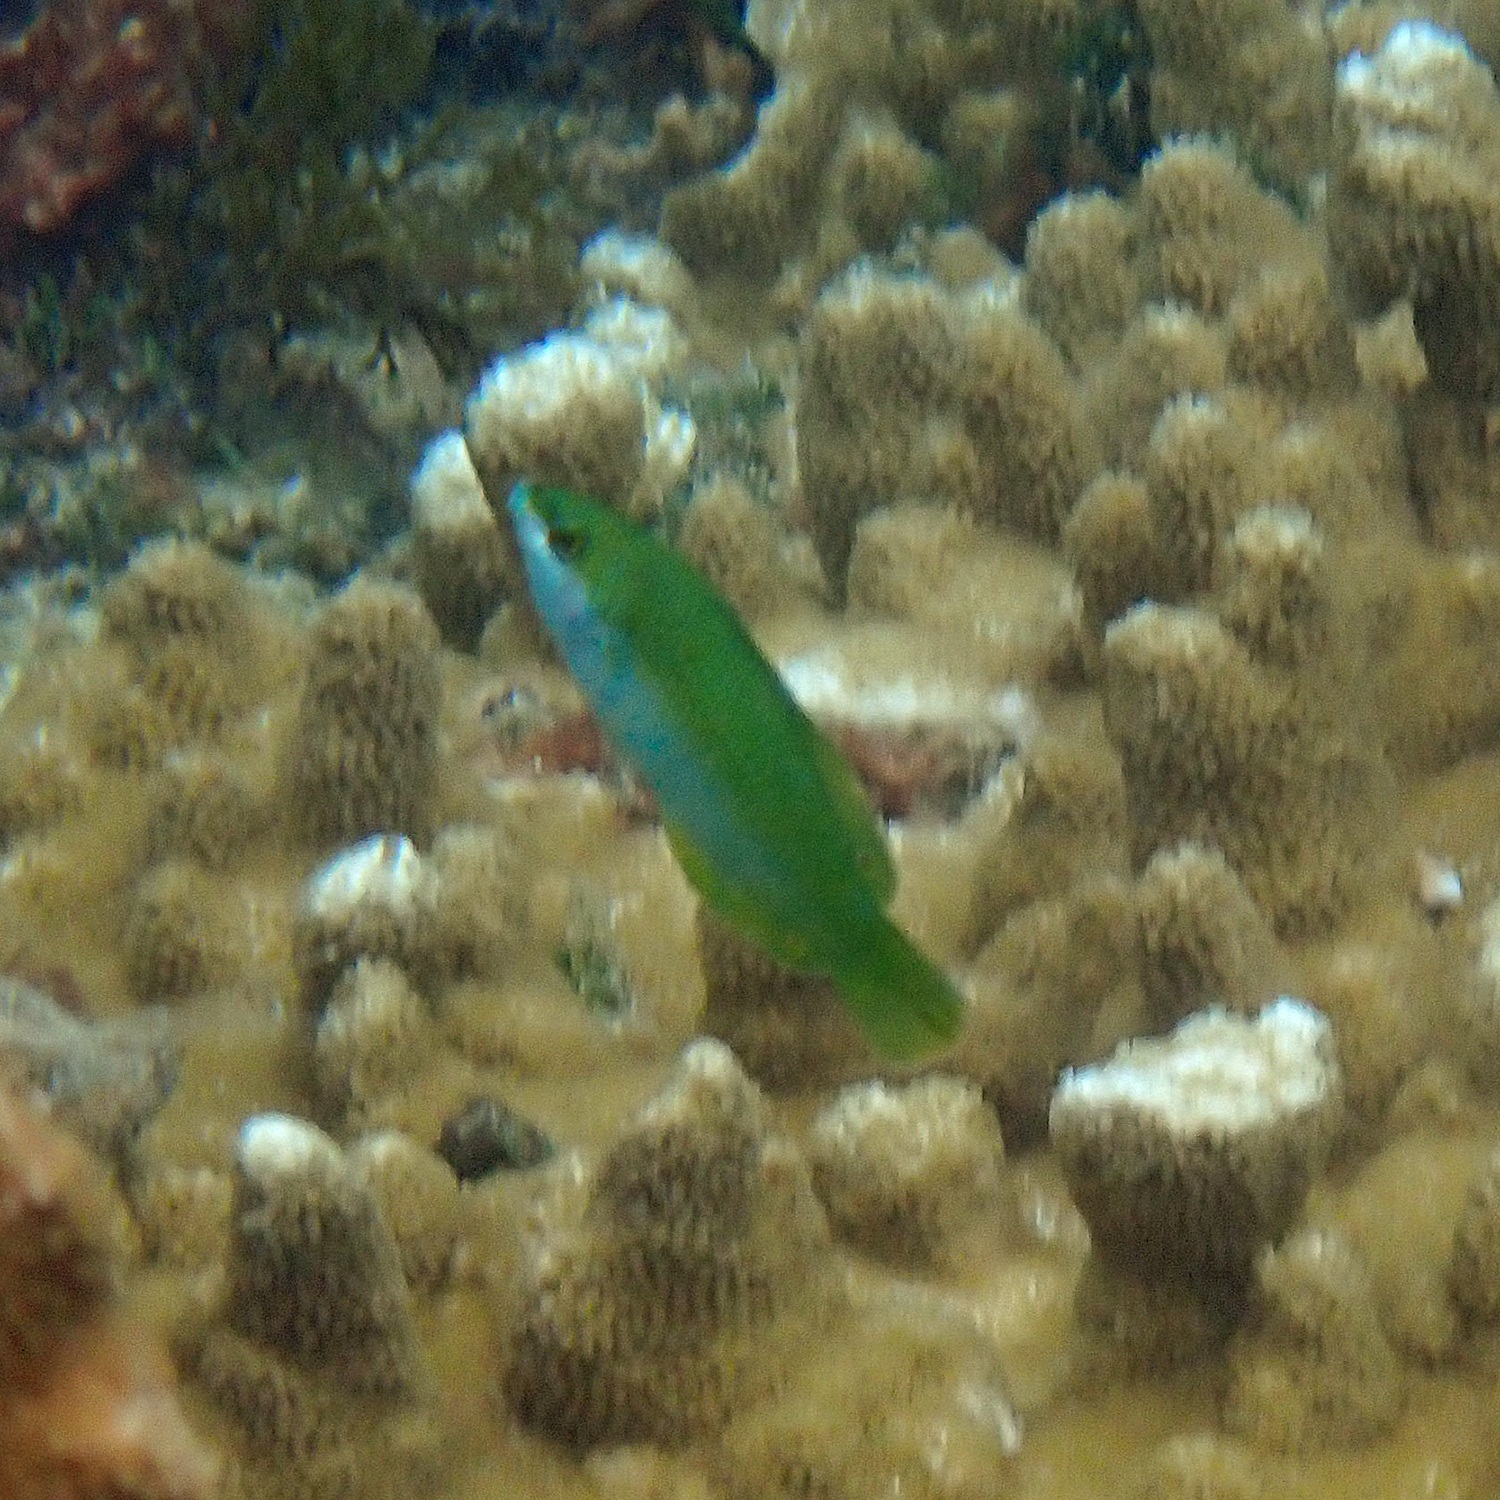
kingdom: Animalia
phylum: Chordata
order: Perciformes
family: Labridae
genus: Anampses
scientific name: Anampses elegans
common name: Elegant wrasse
